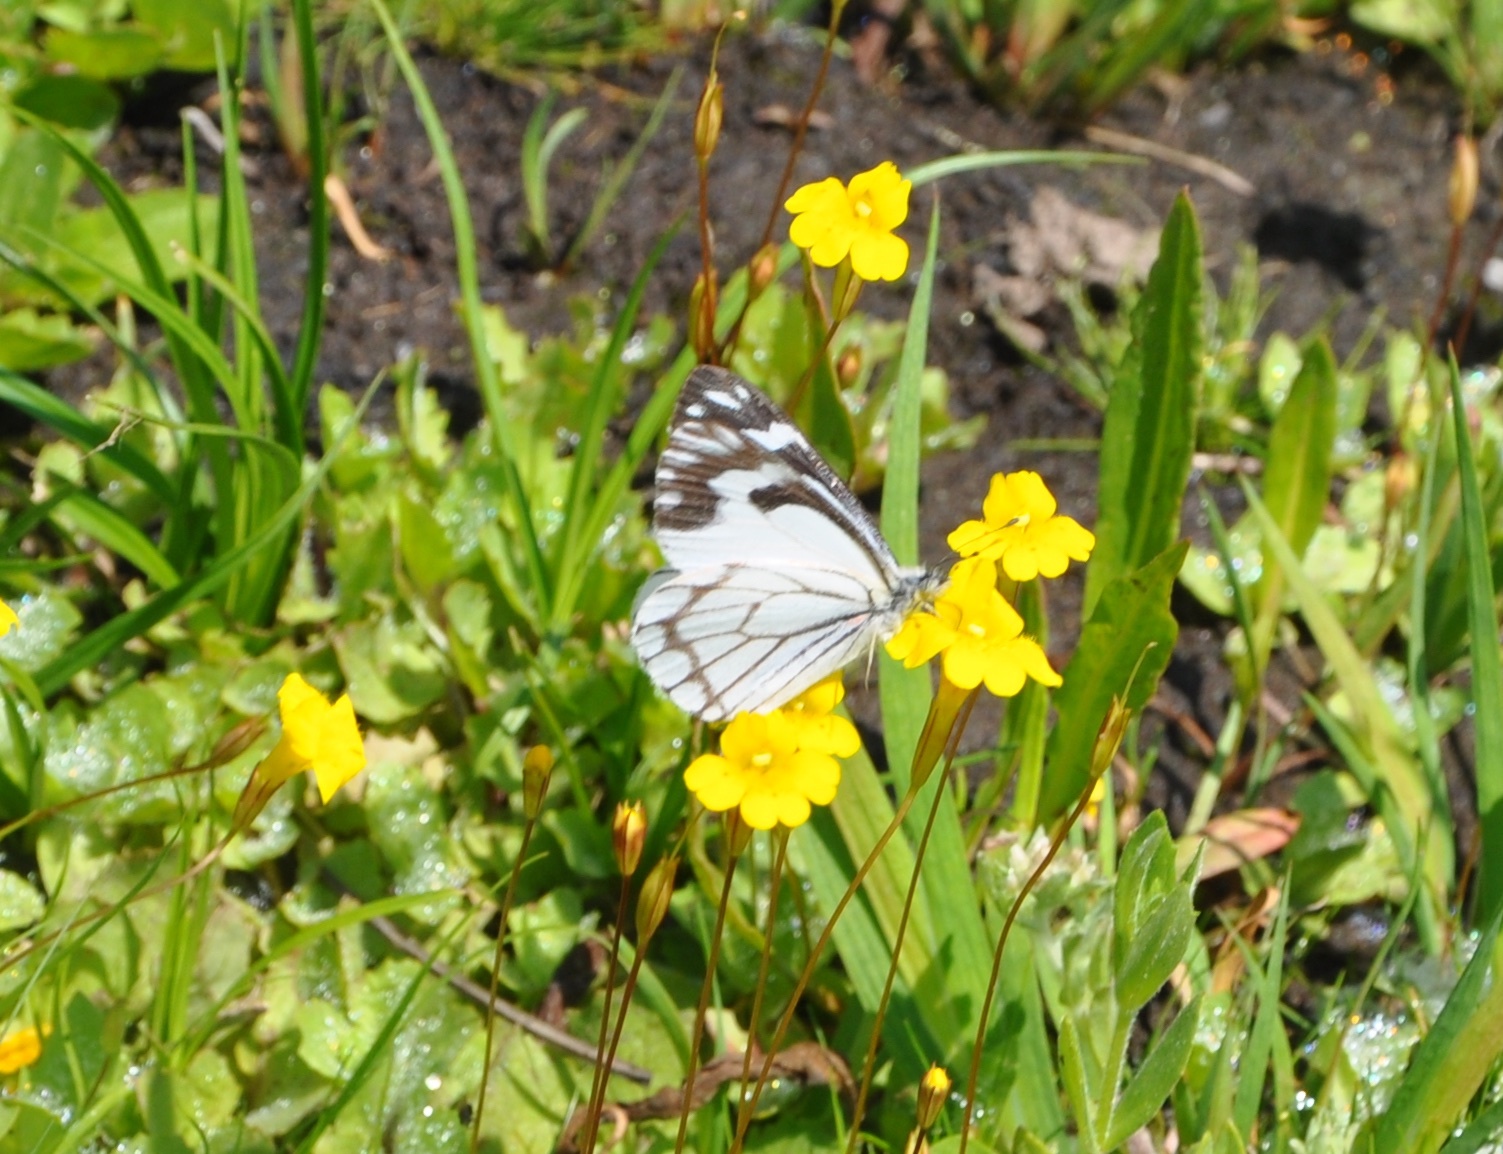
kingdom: Animalia
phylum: Arthropoda
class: Insecta
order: Lepidoptera
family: Pieridae
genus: Neophasia
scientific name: Neophasia menapia
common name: Pine white
